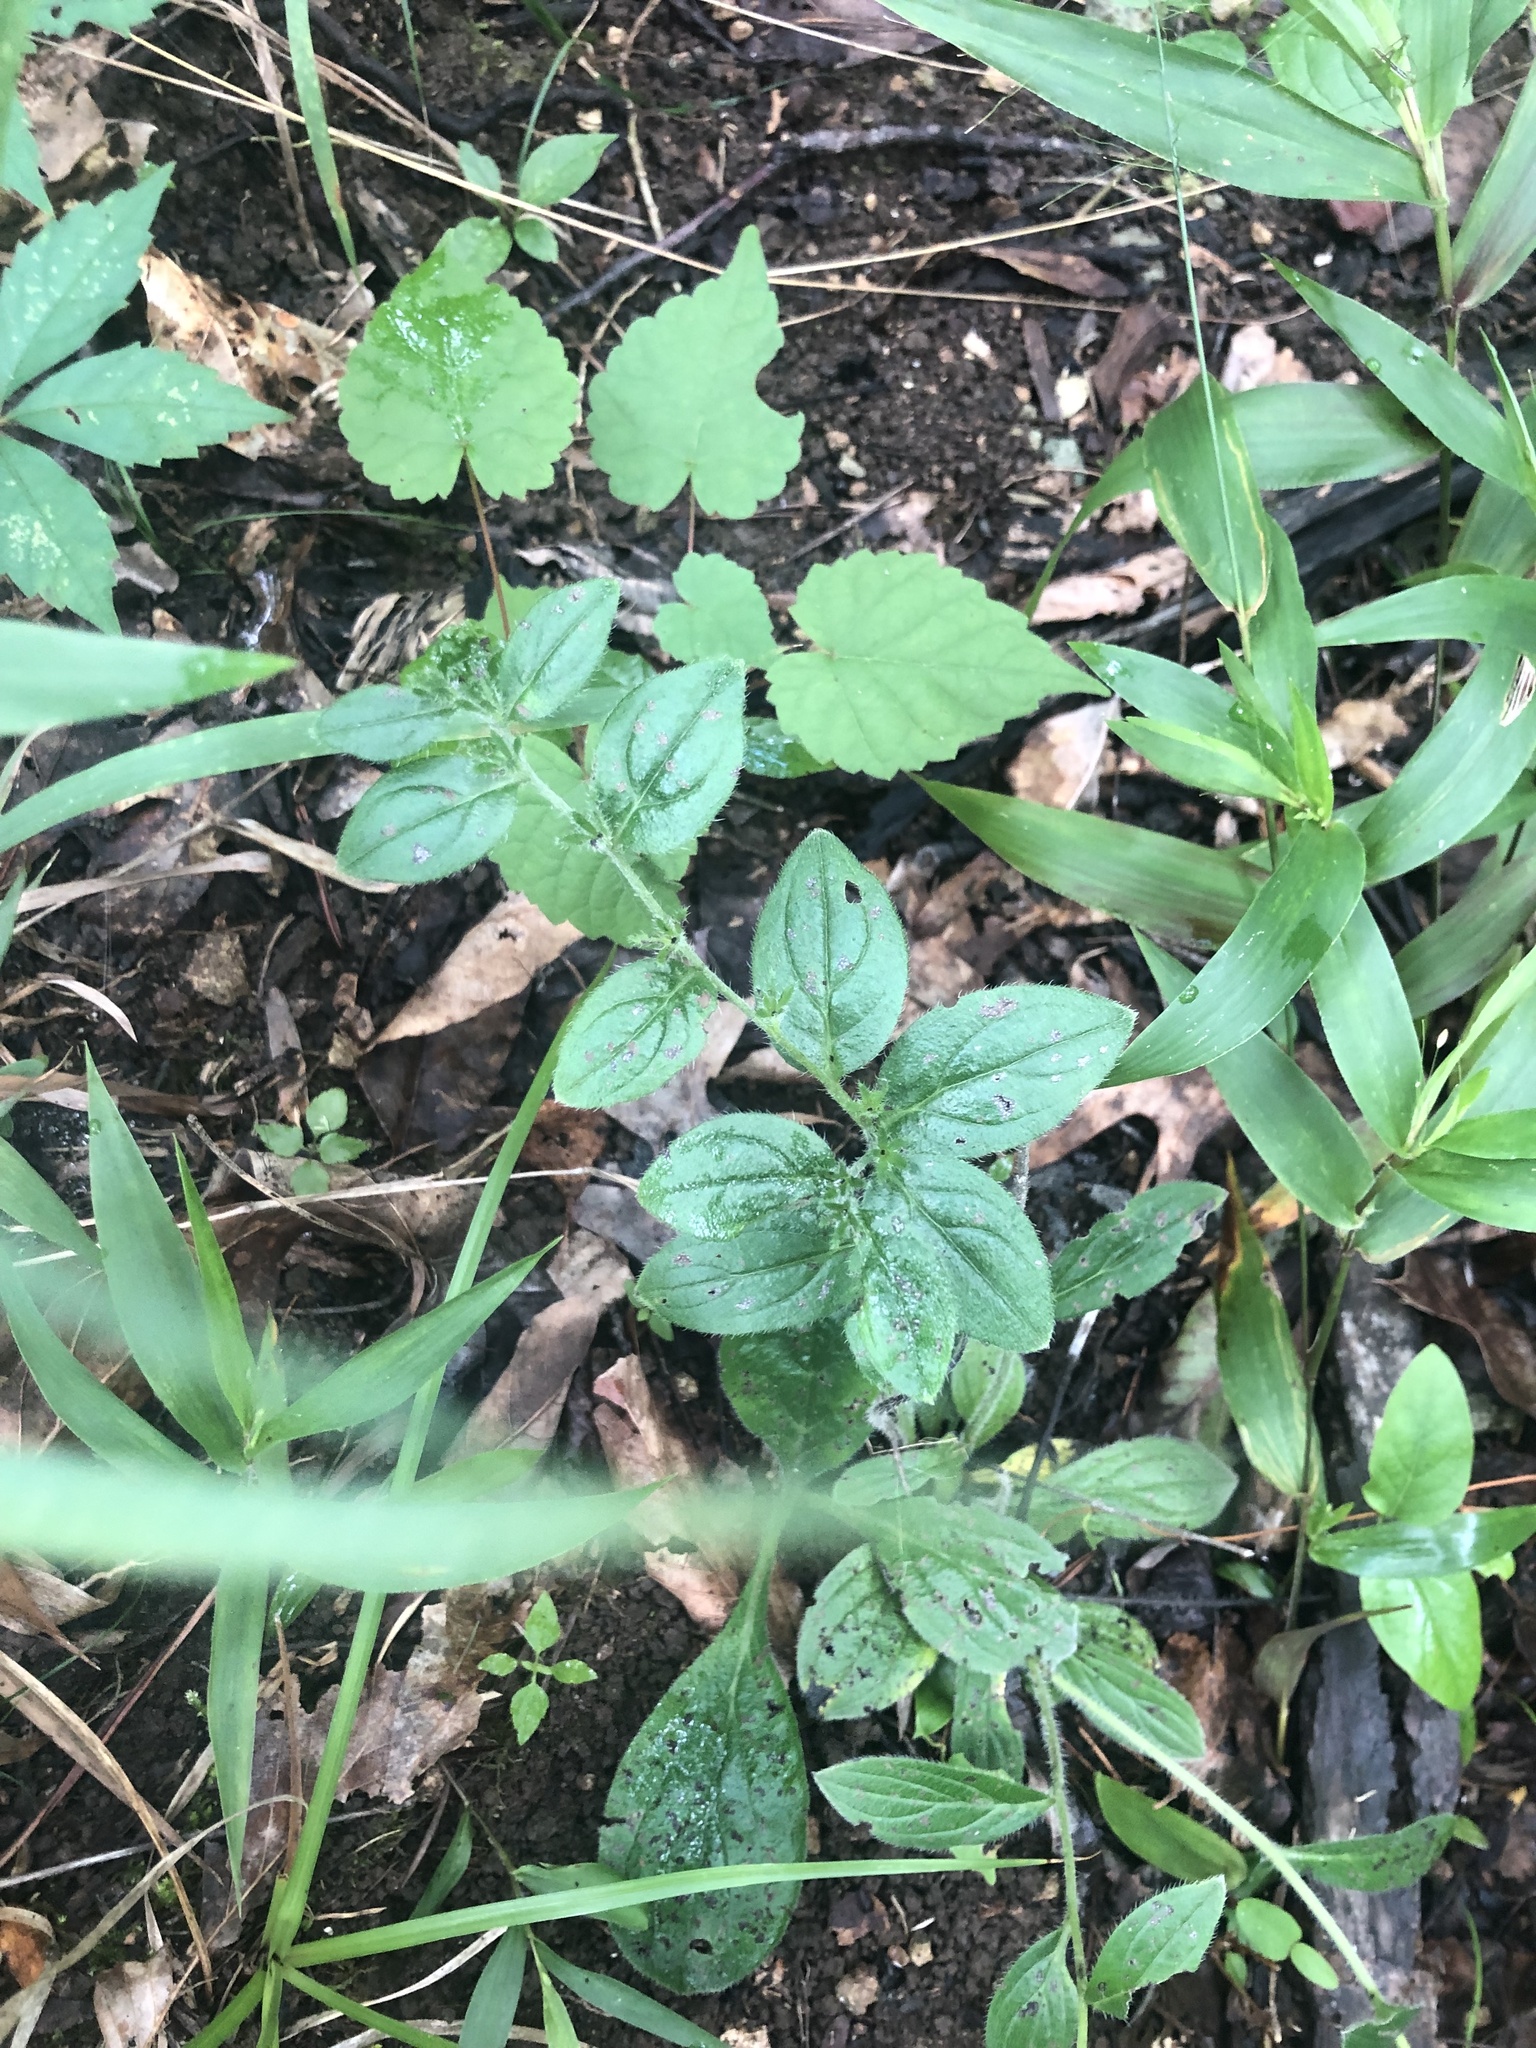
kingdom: Plantae
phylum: Tracheophyta
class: Magnoliopsida
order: Boraginales
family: Boraginaceae
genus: Lithospermum
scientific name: Lithospermum tuberosum
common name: Southern stoneseed
